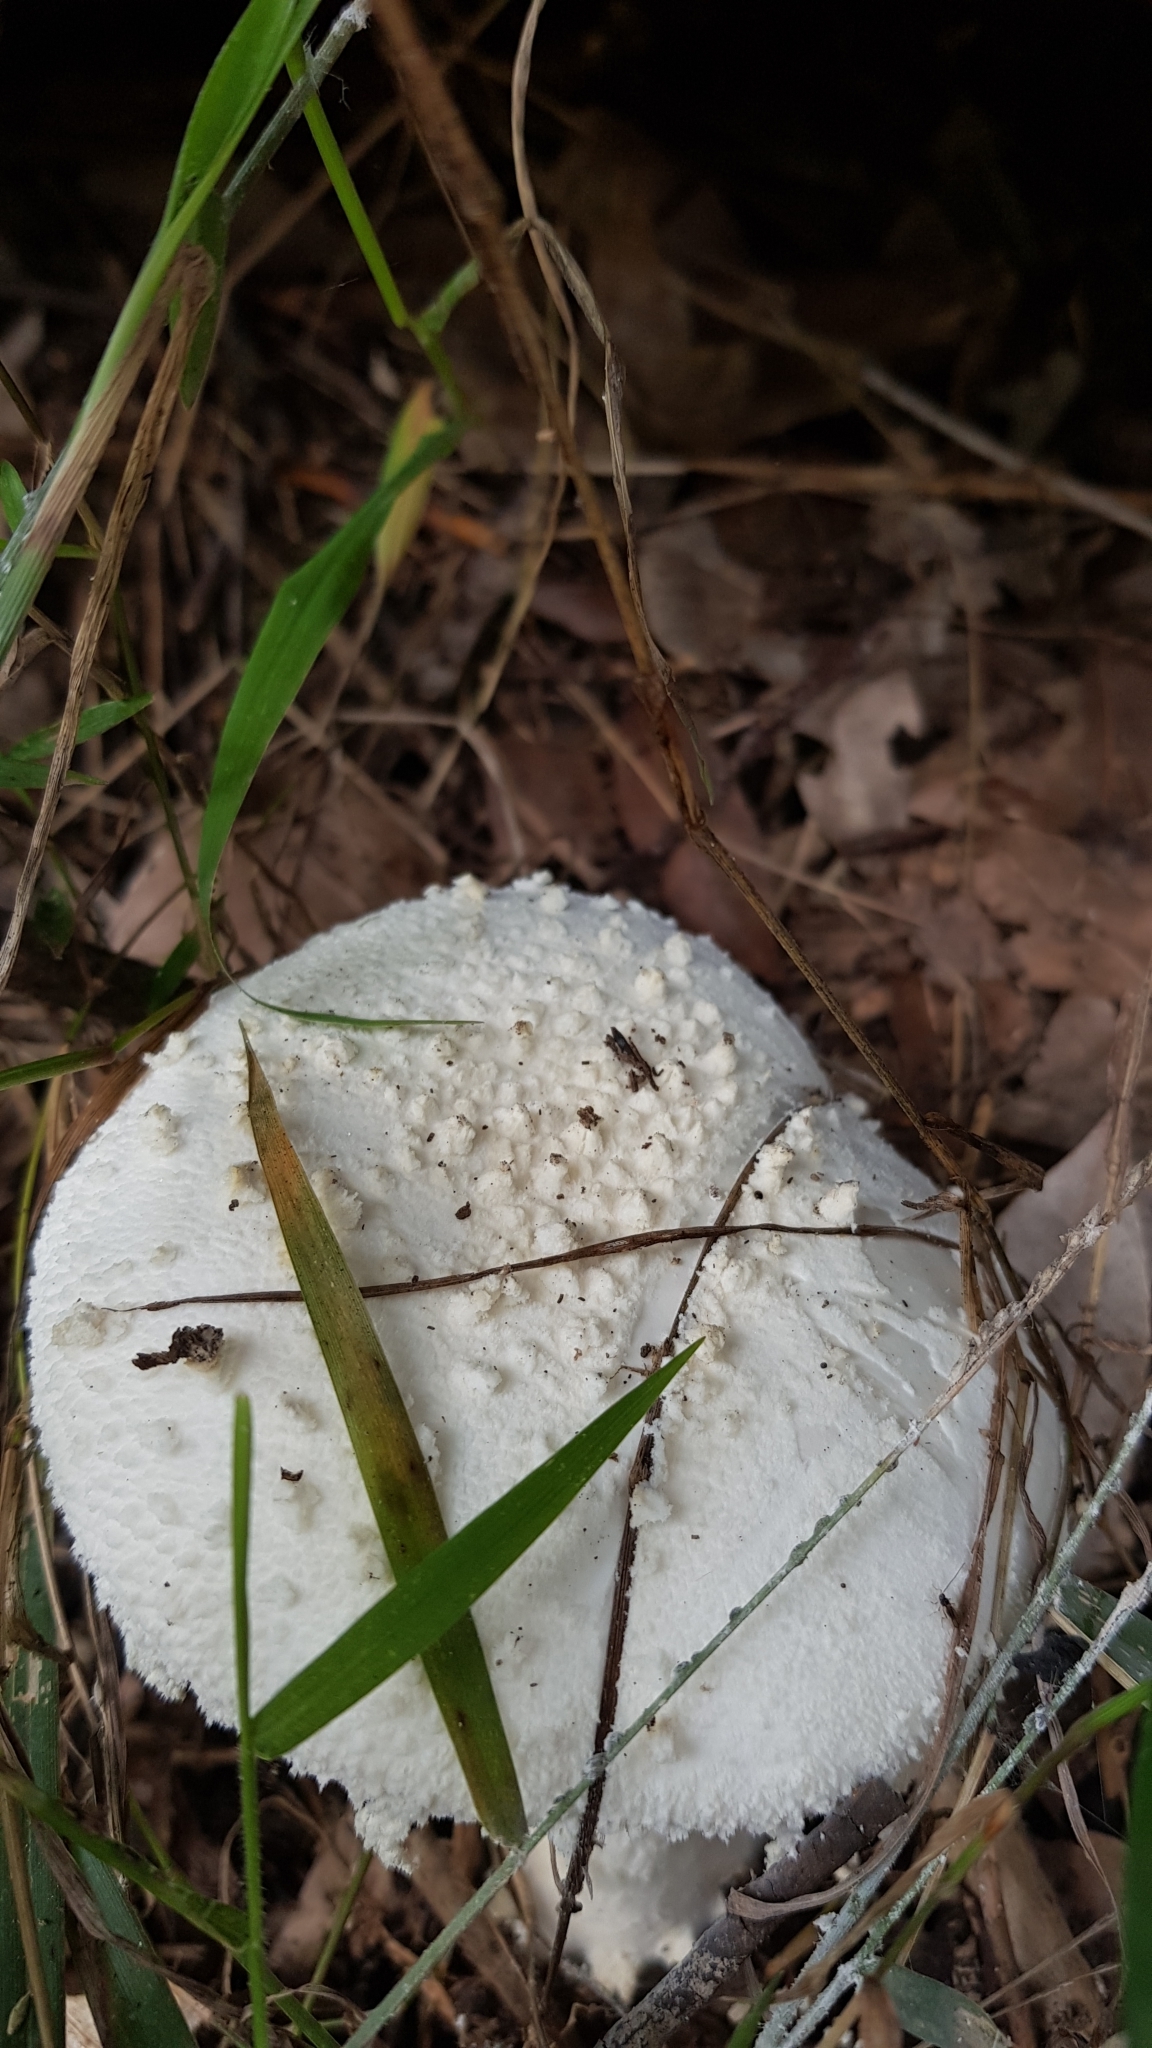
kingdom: Fungi
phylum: Basidiomycota
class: Agaricomycetes
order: Agaricales
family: Amanitaceae
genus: Amanita
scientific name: Amanita farinacea
